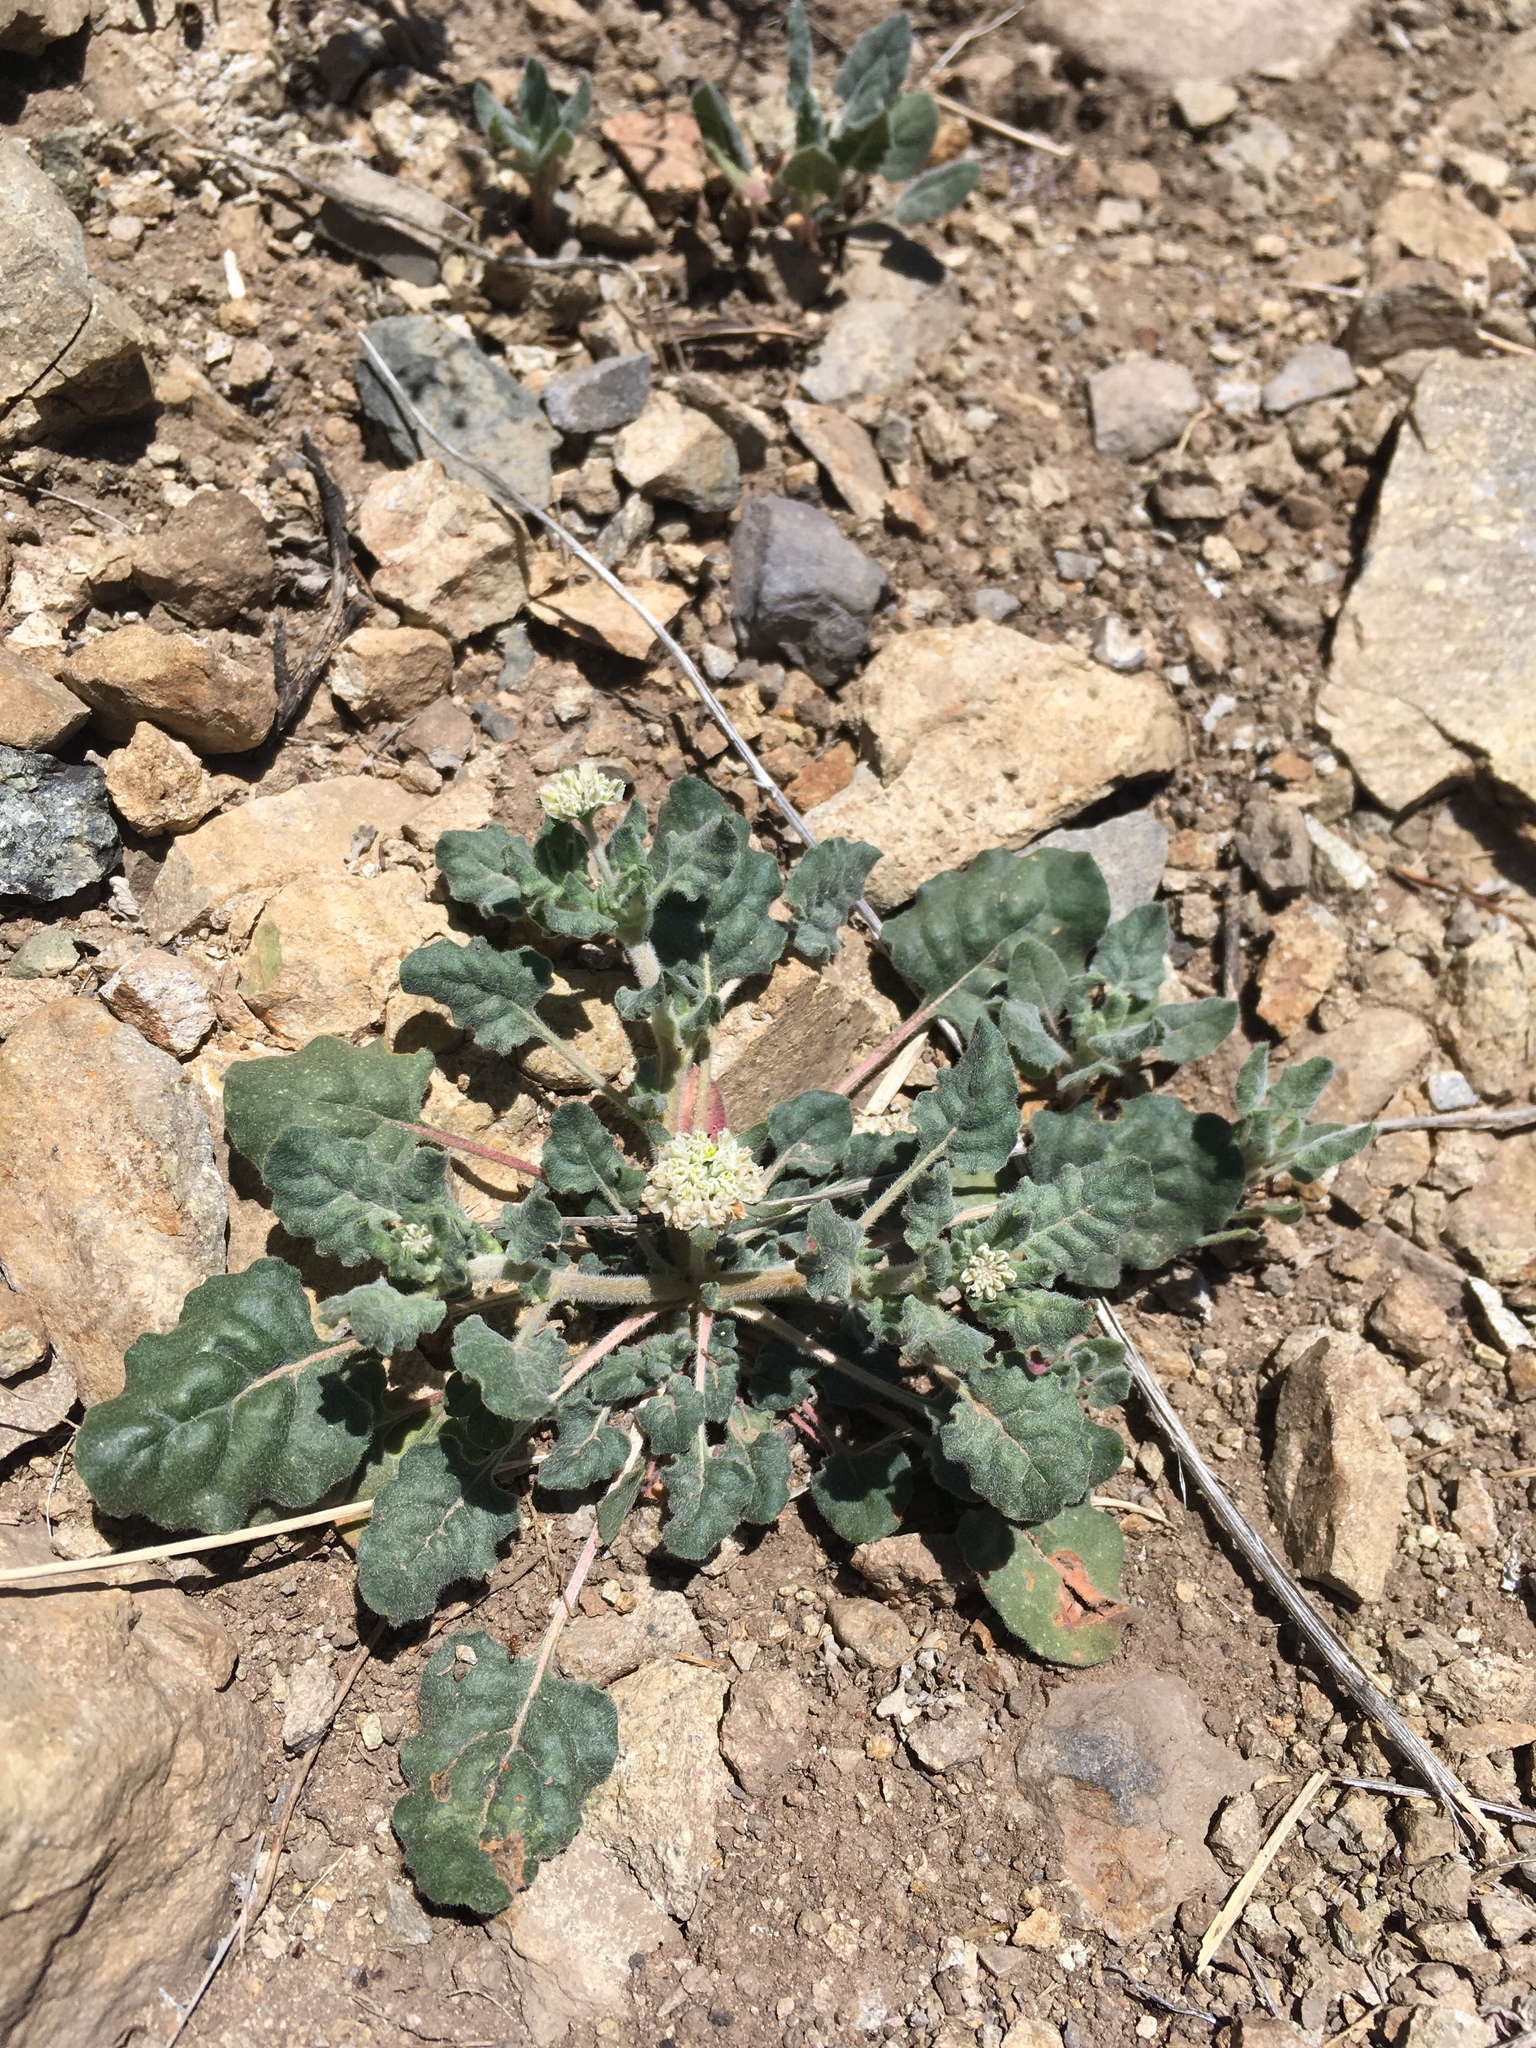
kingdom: Plantae
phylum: Tracheophyta
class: Magnoliopsida
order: Caryophyllales
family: Polygonaceae
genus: Eriogonum
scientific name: Eriogonum abertianum
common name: Abert's wild buckwheat
